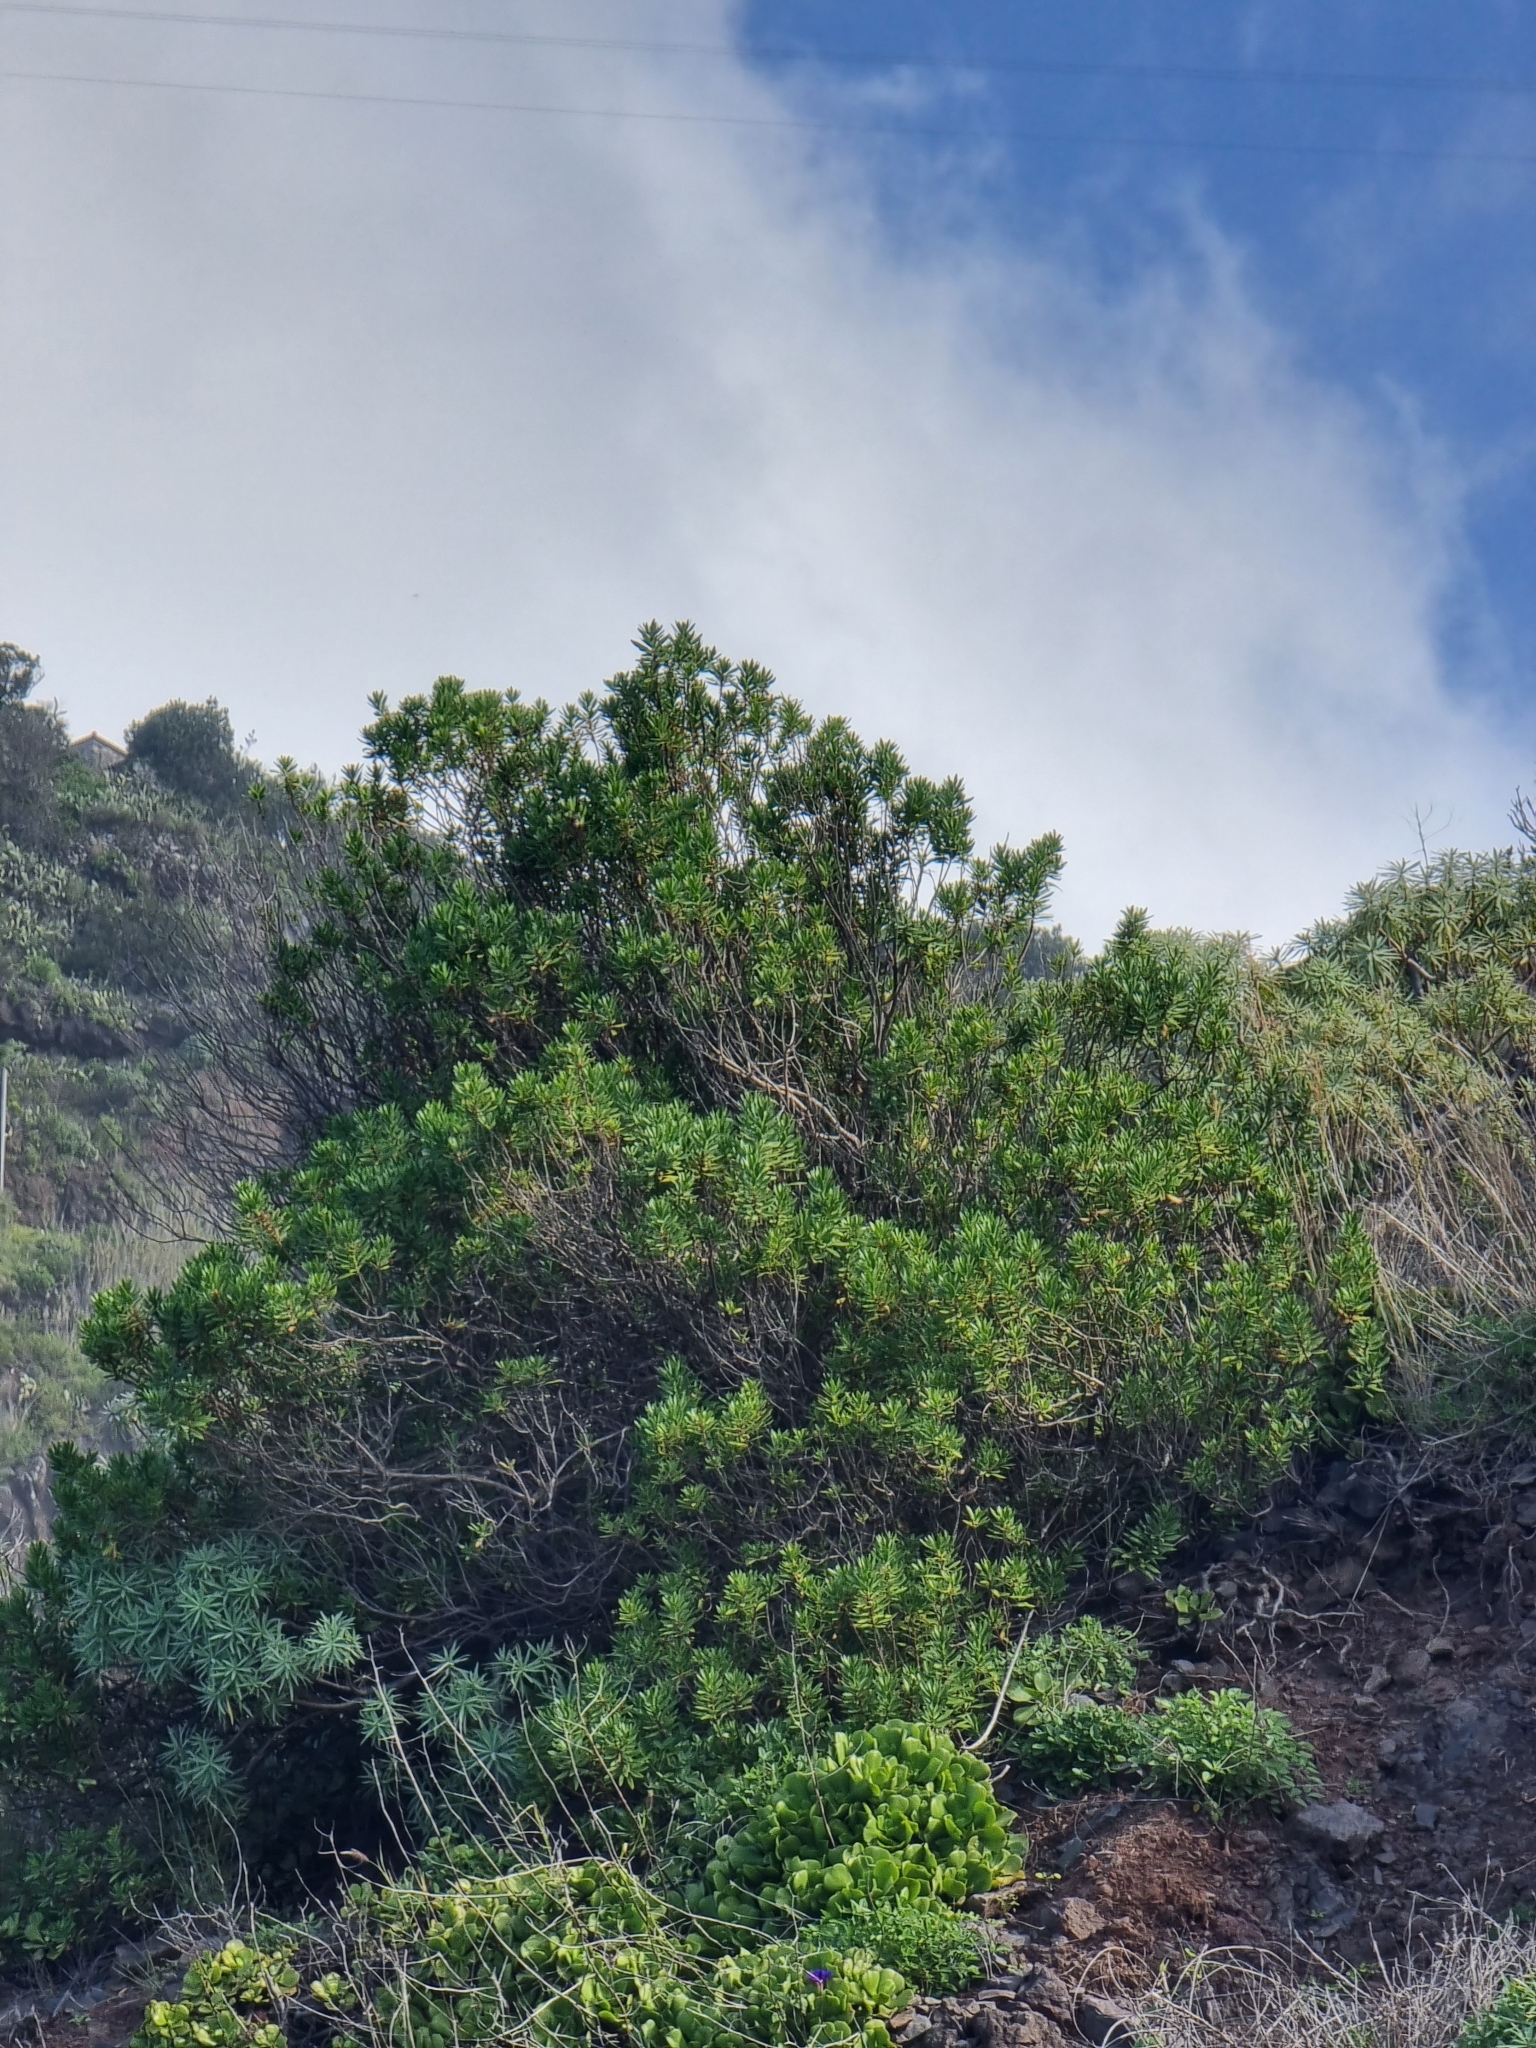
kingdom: Plantae
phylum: Tracheophyta
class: Magnoliopsida
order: Lamiales
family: Plantaginaceae
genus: Globularia
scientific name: Globularia salicina
